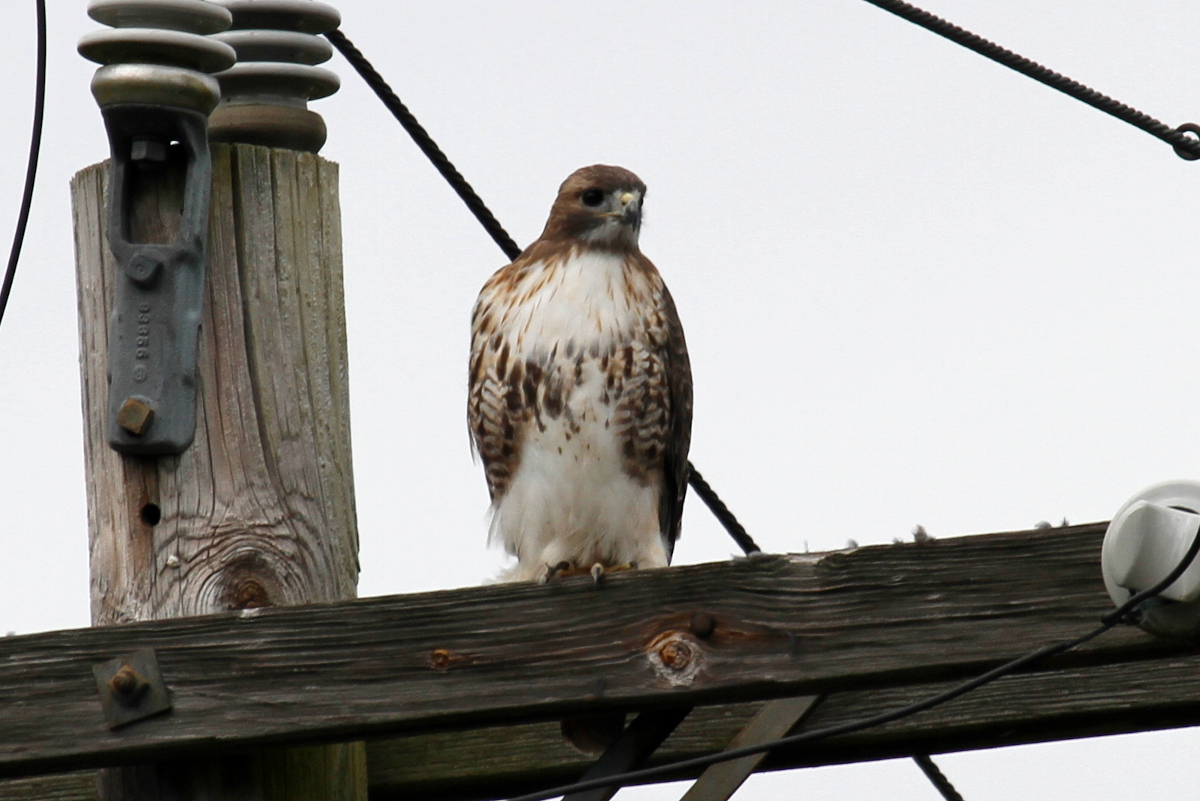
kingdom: Animalia
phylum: Chordata
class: Aves
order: Accipitriformes
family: Accipitridae
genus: Buteo
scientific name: Buteo jamaicensis
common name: Red-tailed hawk
